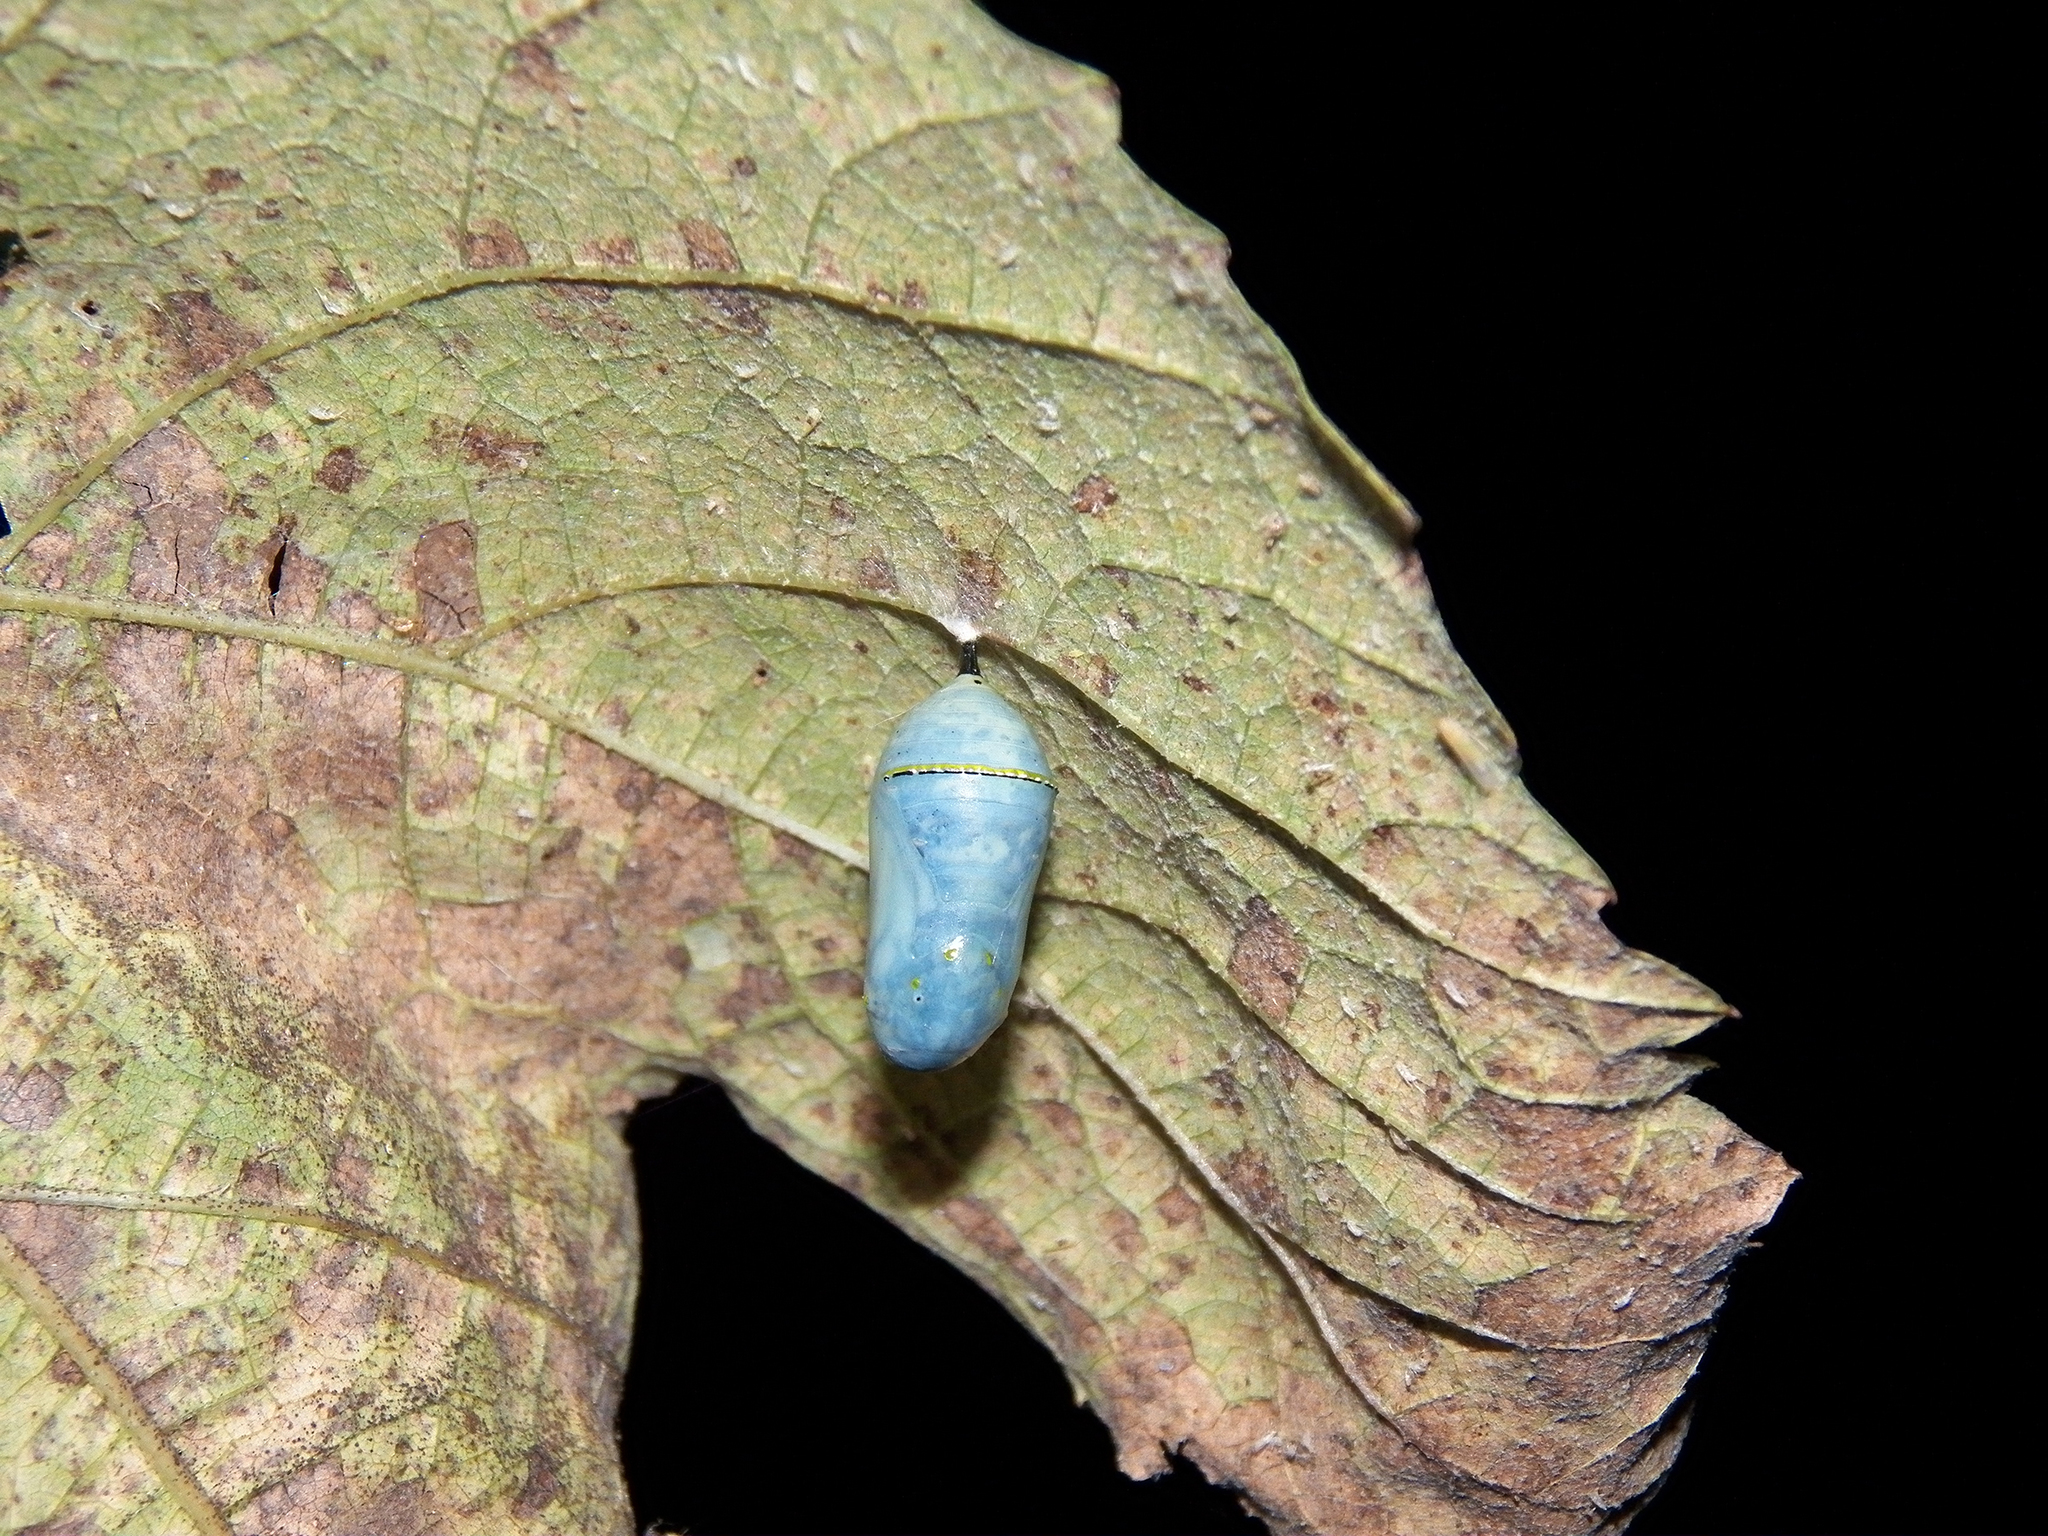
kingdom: Animalia
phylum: Arthropoda
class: Insecta
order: Lepidoptera
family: Nymphalidae
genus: Danaus
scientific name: Danaus plexippus
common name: Monarch
